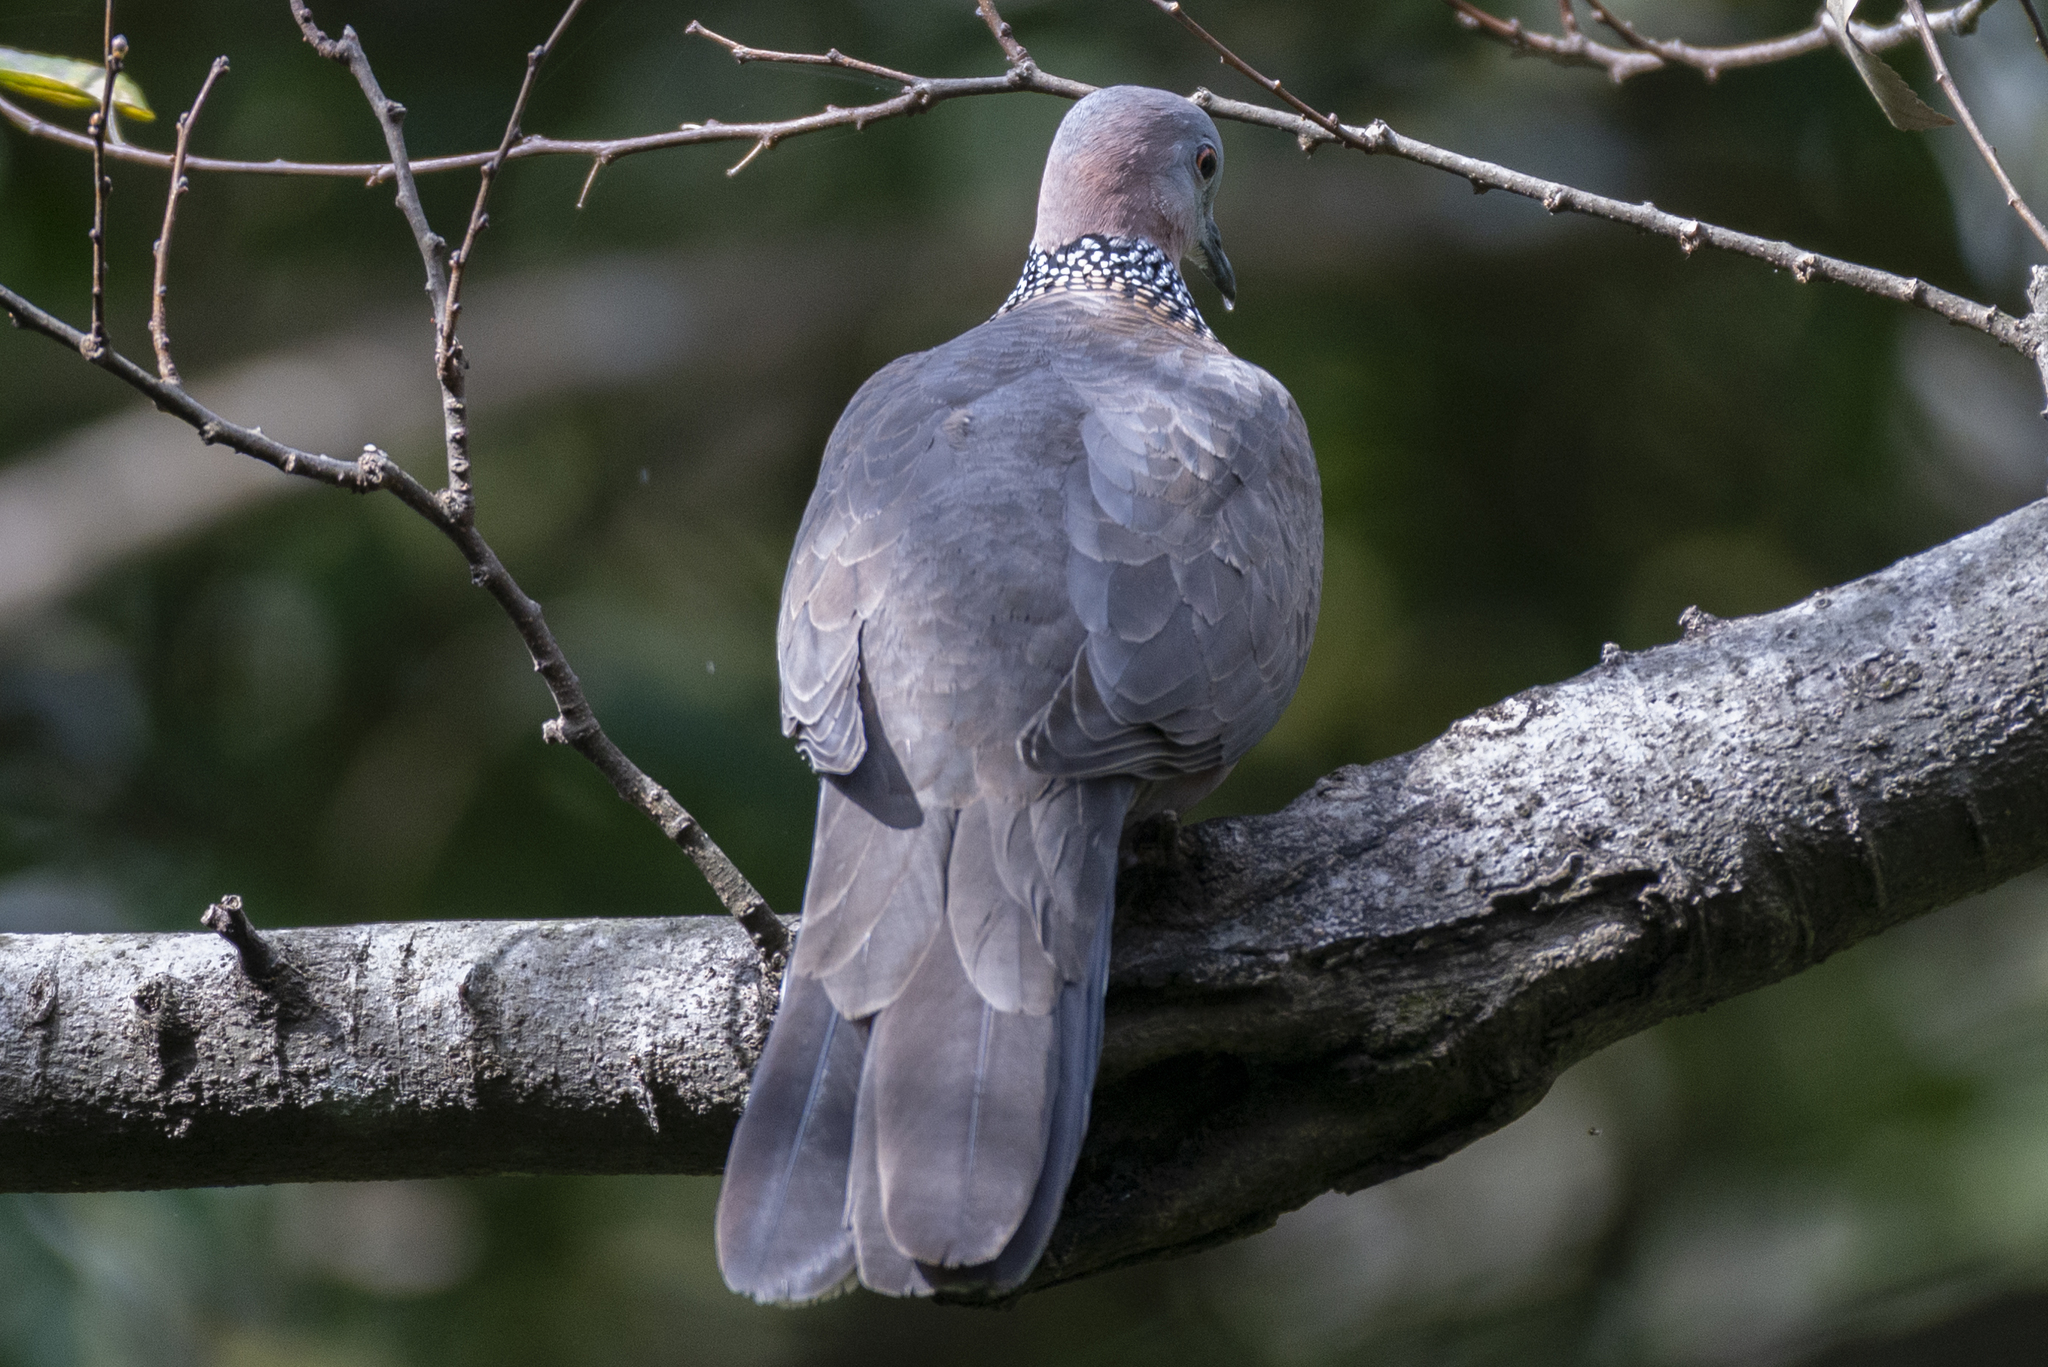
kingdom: Animalia
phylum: Chordata
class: Aves
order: Columbiformes
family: Columbidae
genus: Spilopelia
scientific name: Spilopelia chinensis
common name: Spotted dove
